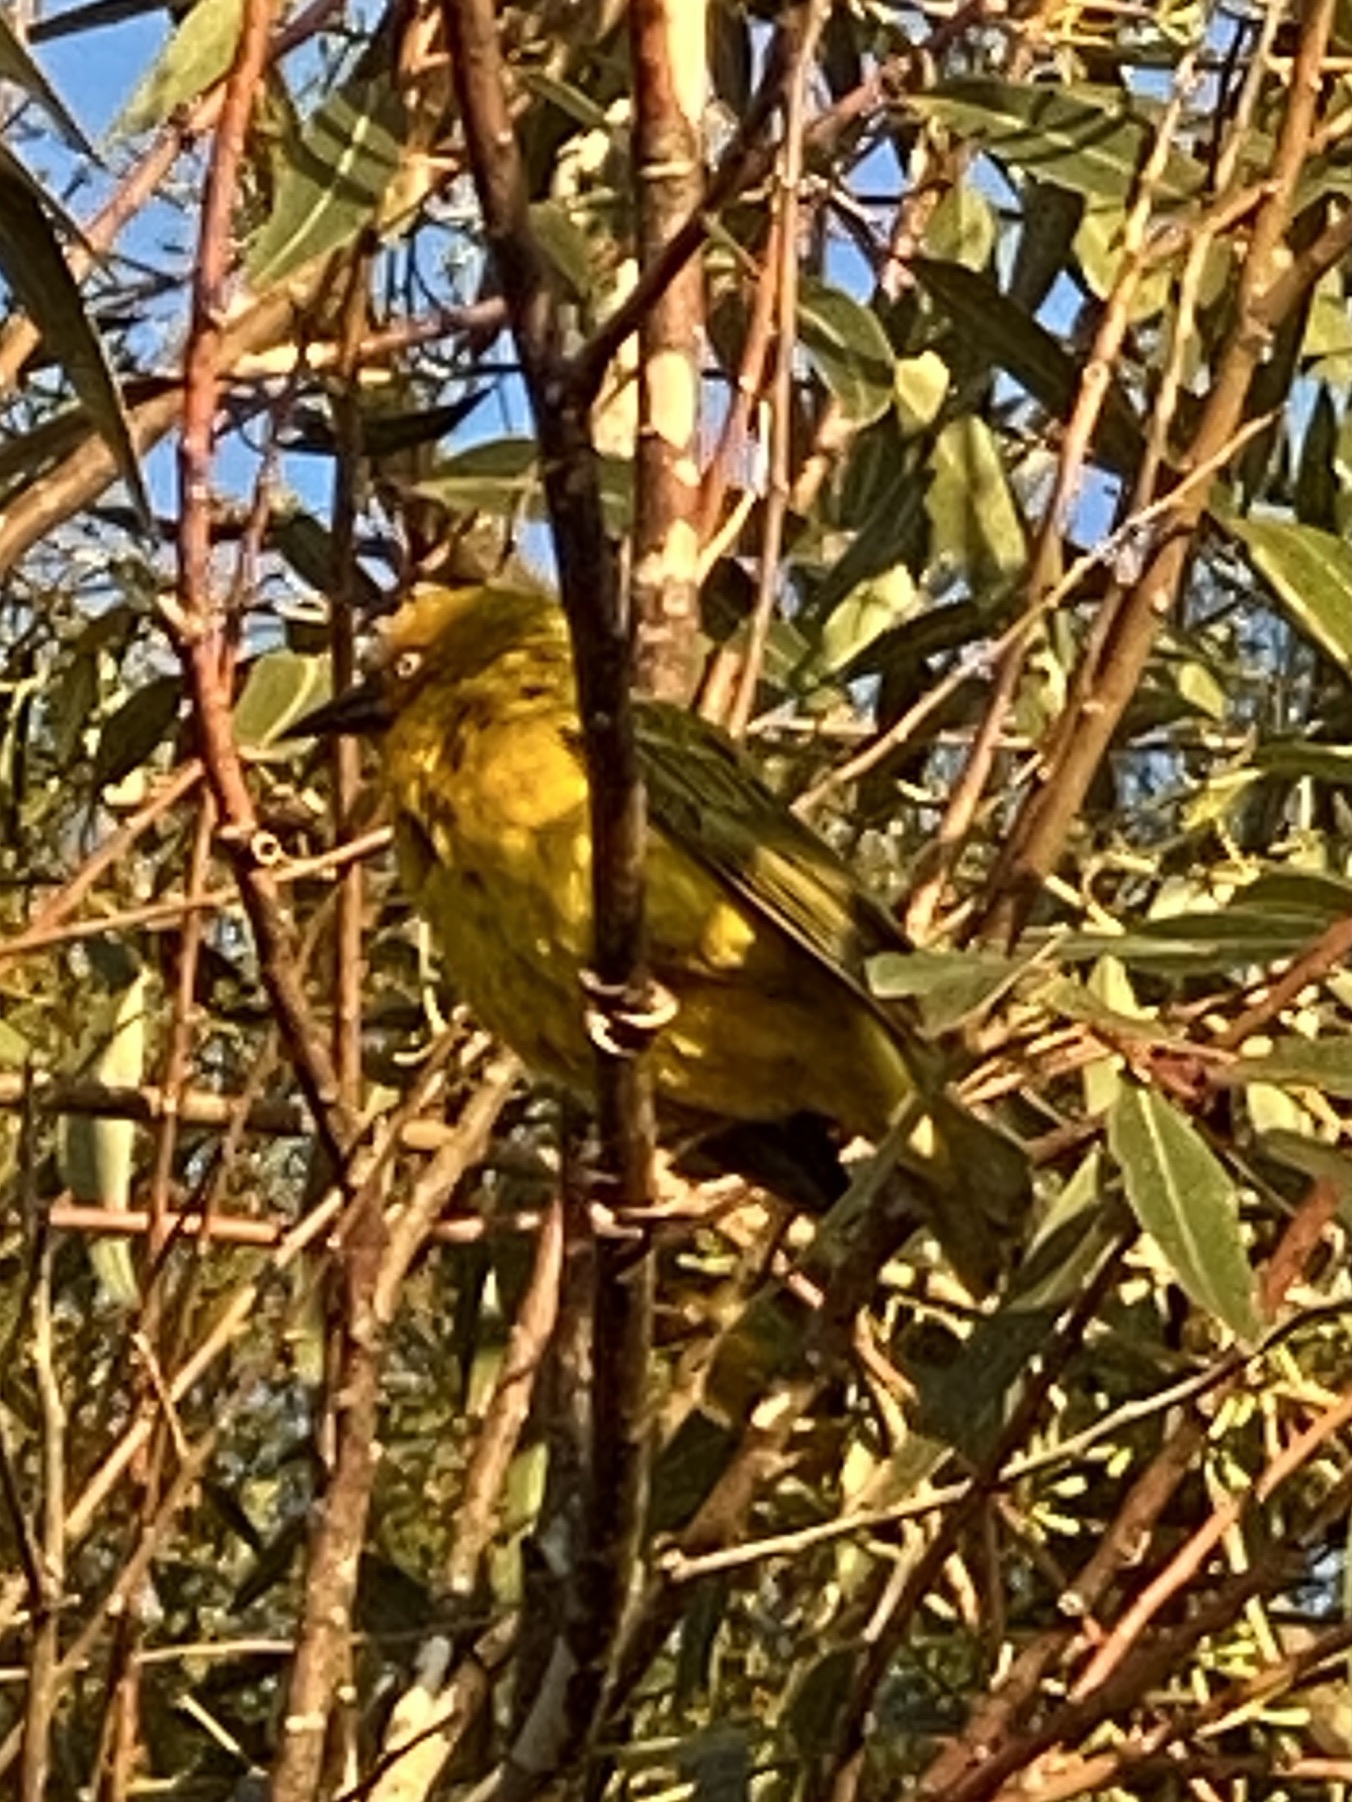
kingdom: Animalia
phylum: Chordata
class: Aves
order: Passeriformes
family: Ploceidae
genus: Ploceus
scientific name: Ploceus capensis
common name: Cape weaver
